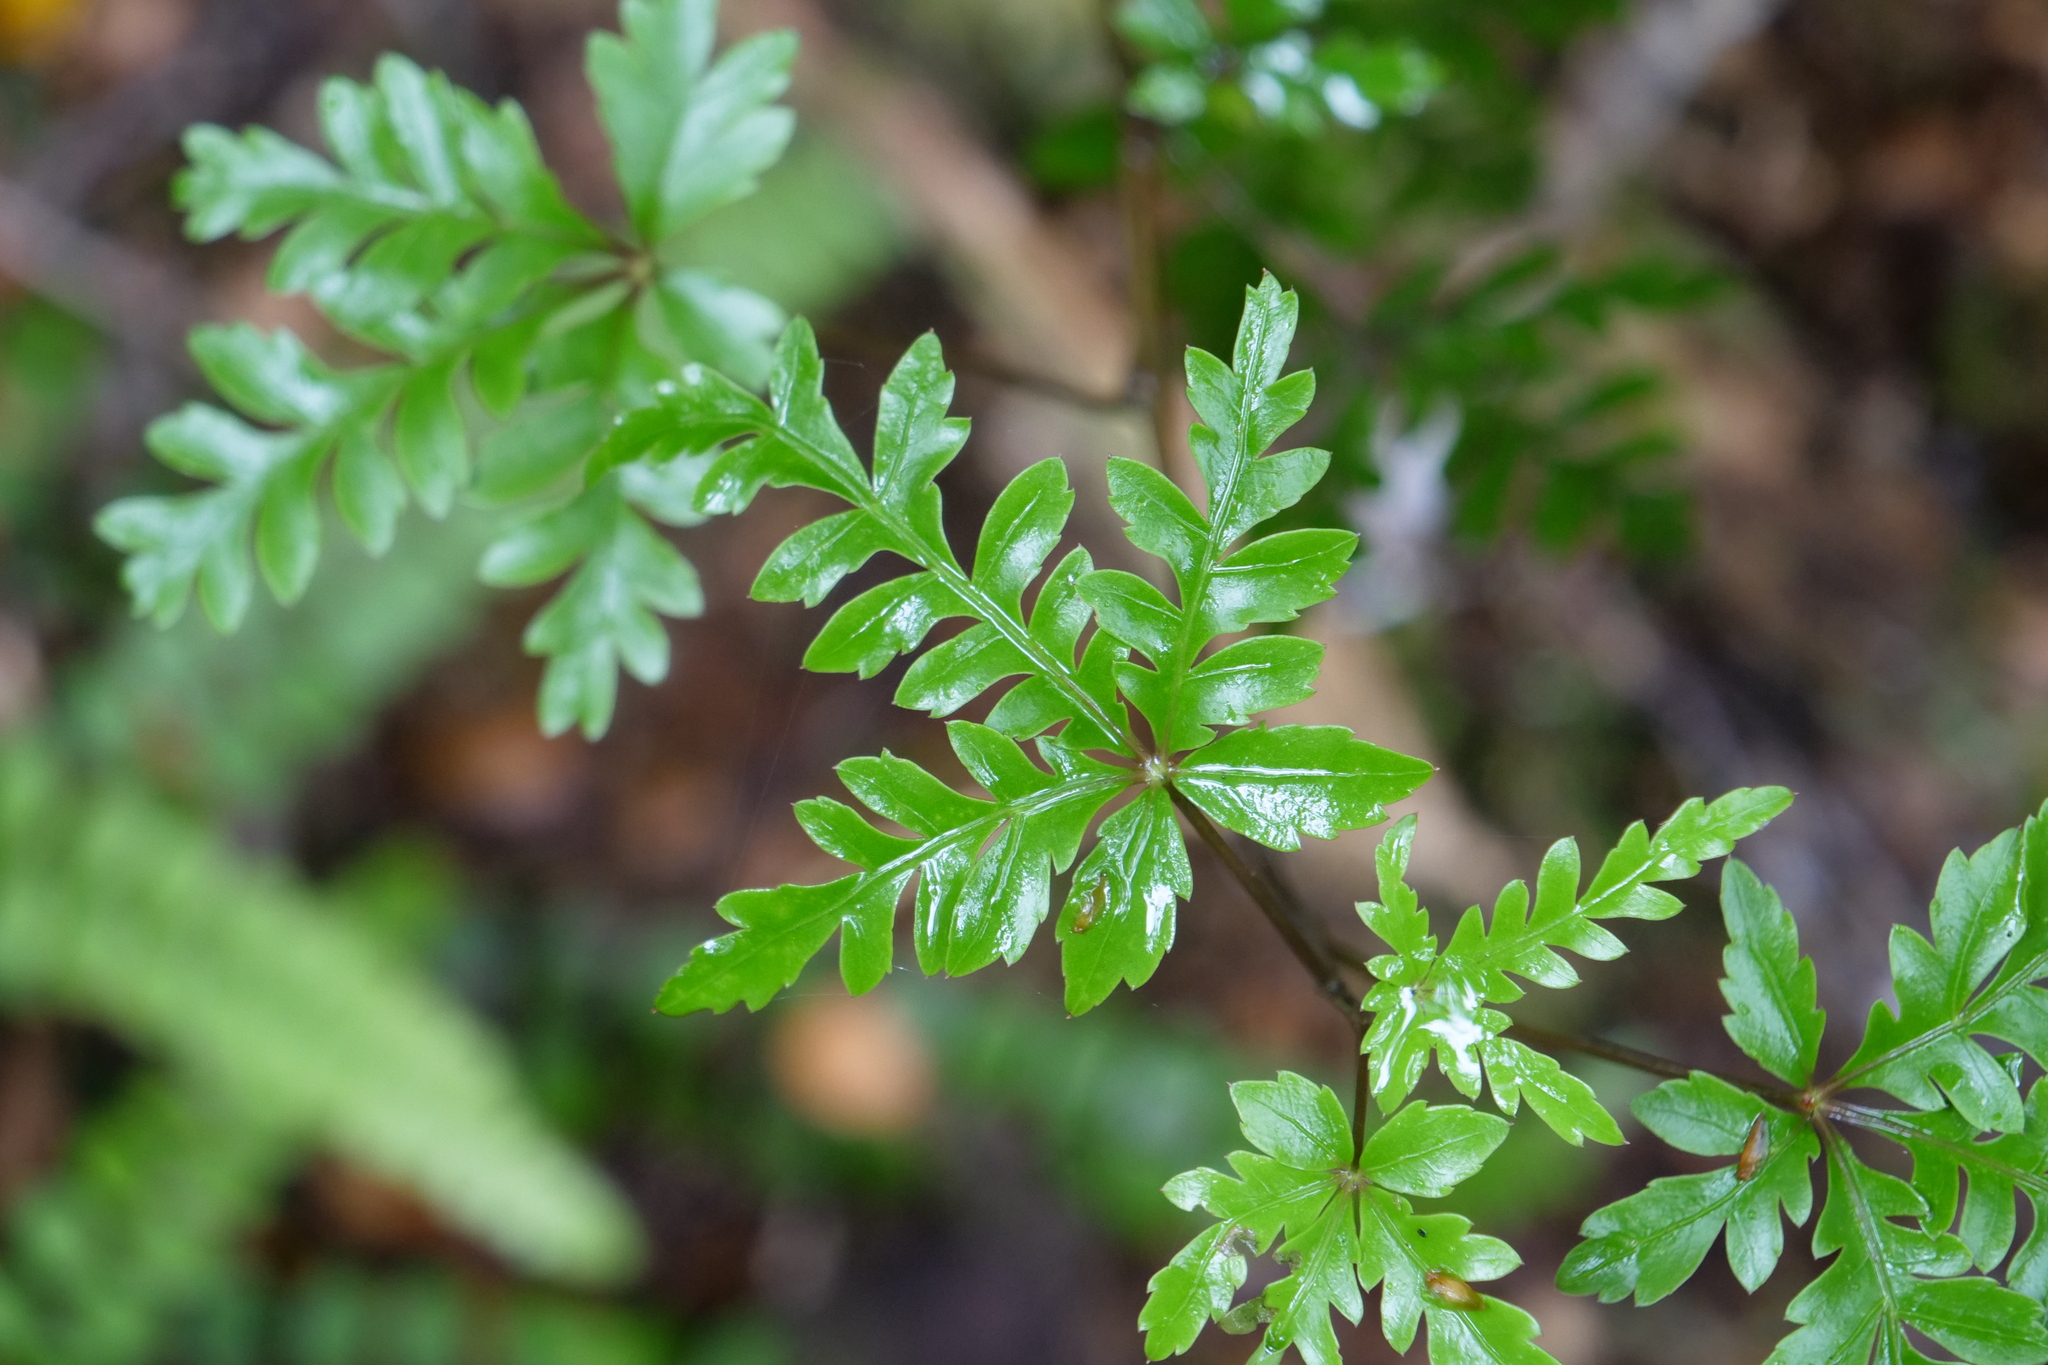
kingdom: Plantae
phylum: Tracheophyta
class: Magnoliopsida
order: Apiales
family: Araliaceae
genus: Raukaua
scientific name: Raukaua simplex
